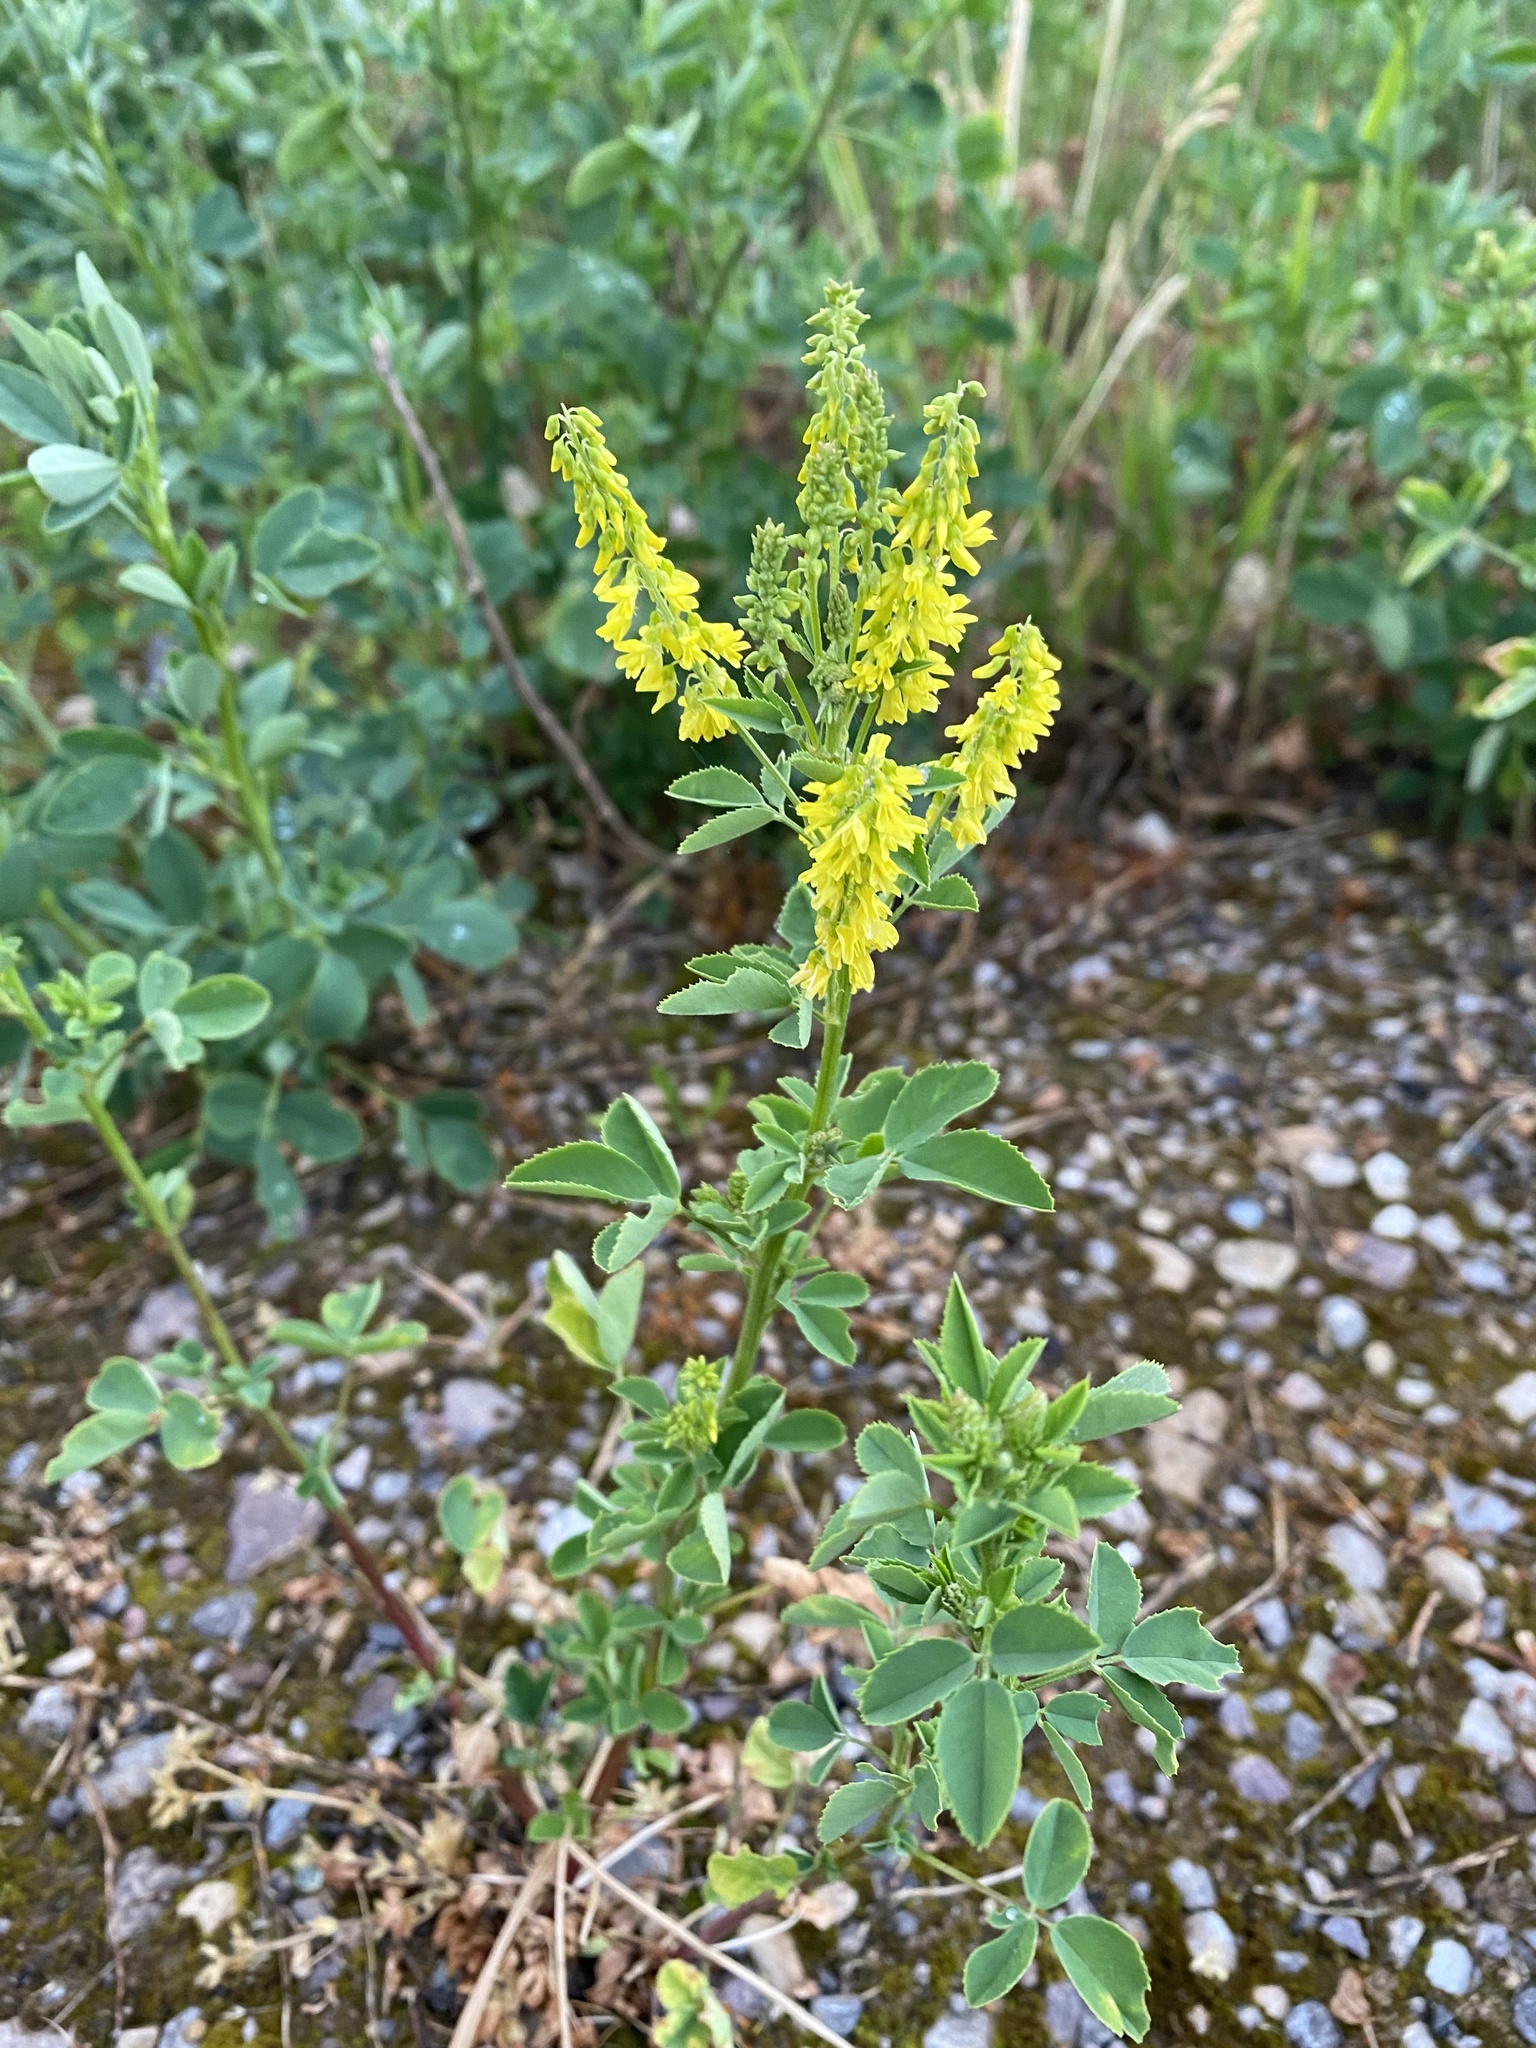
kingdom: Plantae
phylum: Tracheophyta
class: Magnoliopsida
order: Fabales
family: Fabaceae
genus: Melilotus
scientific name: Melilotus officinalis
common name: Sweetclover
